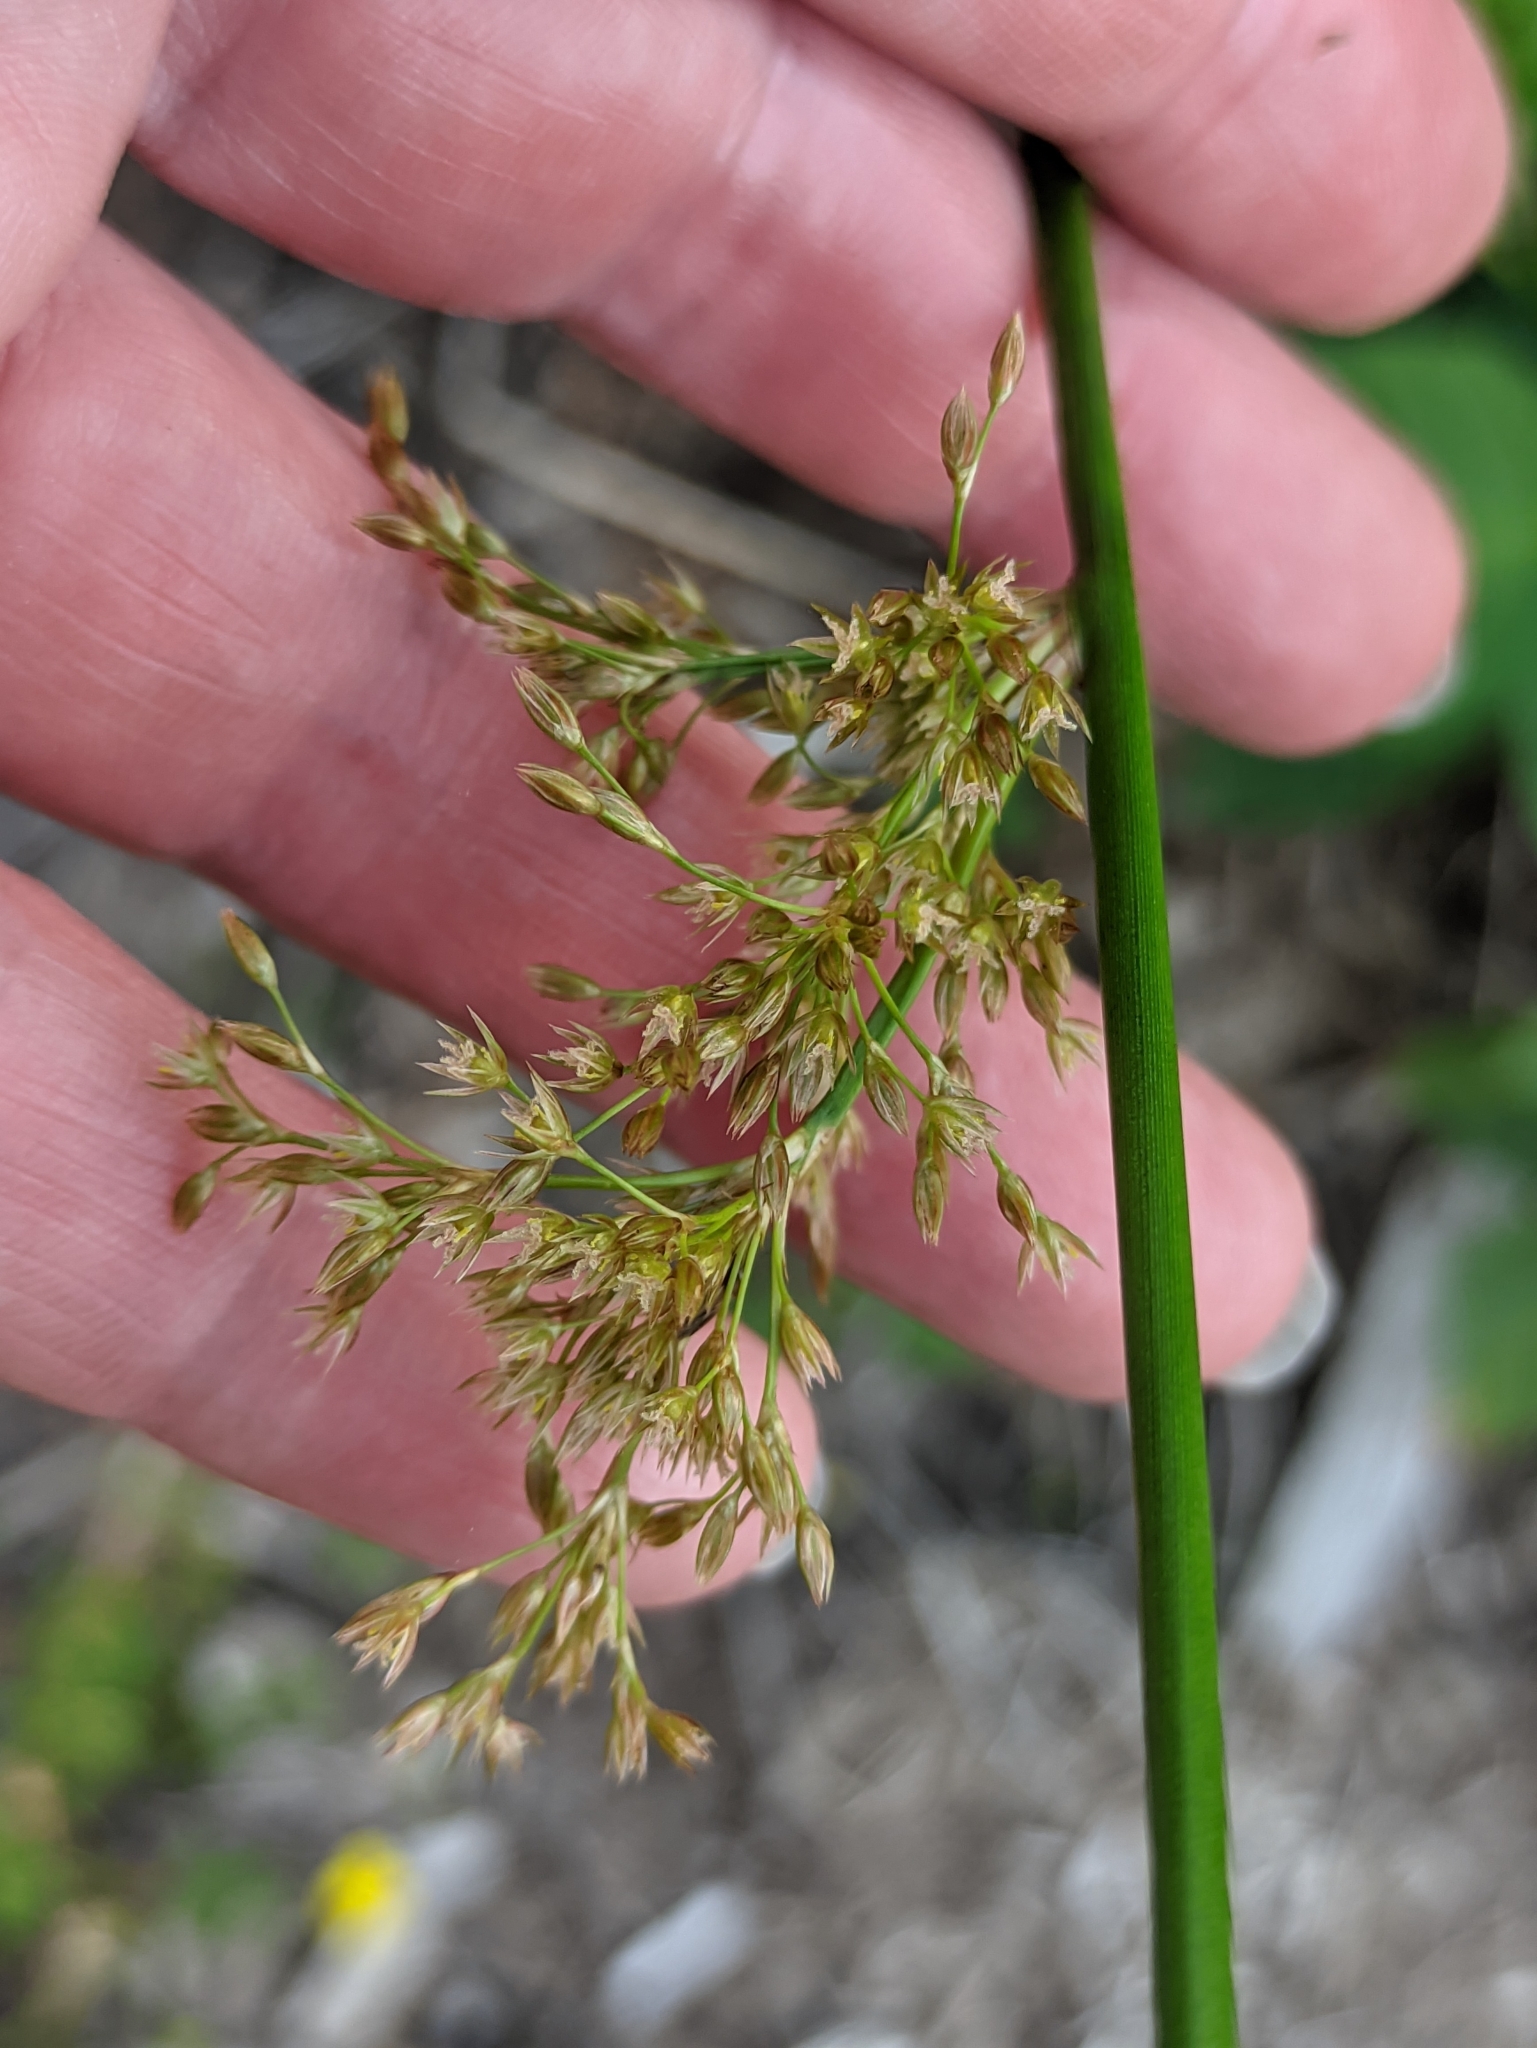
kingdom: Plantae
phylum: Tracheophyta
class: Liliopsida
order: Poales
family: Juncaceae
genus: Juncus
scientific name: Juncus effusus
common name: Soft rush
